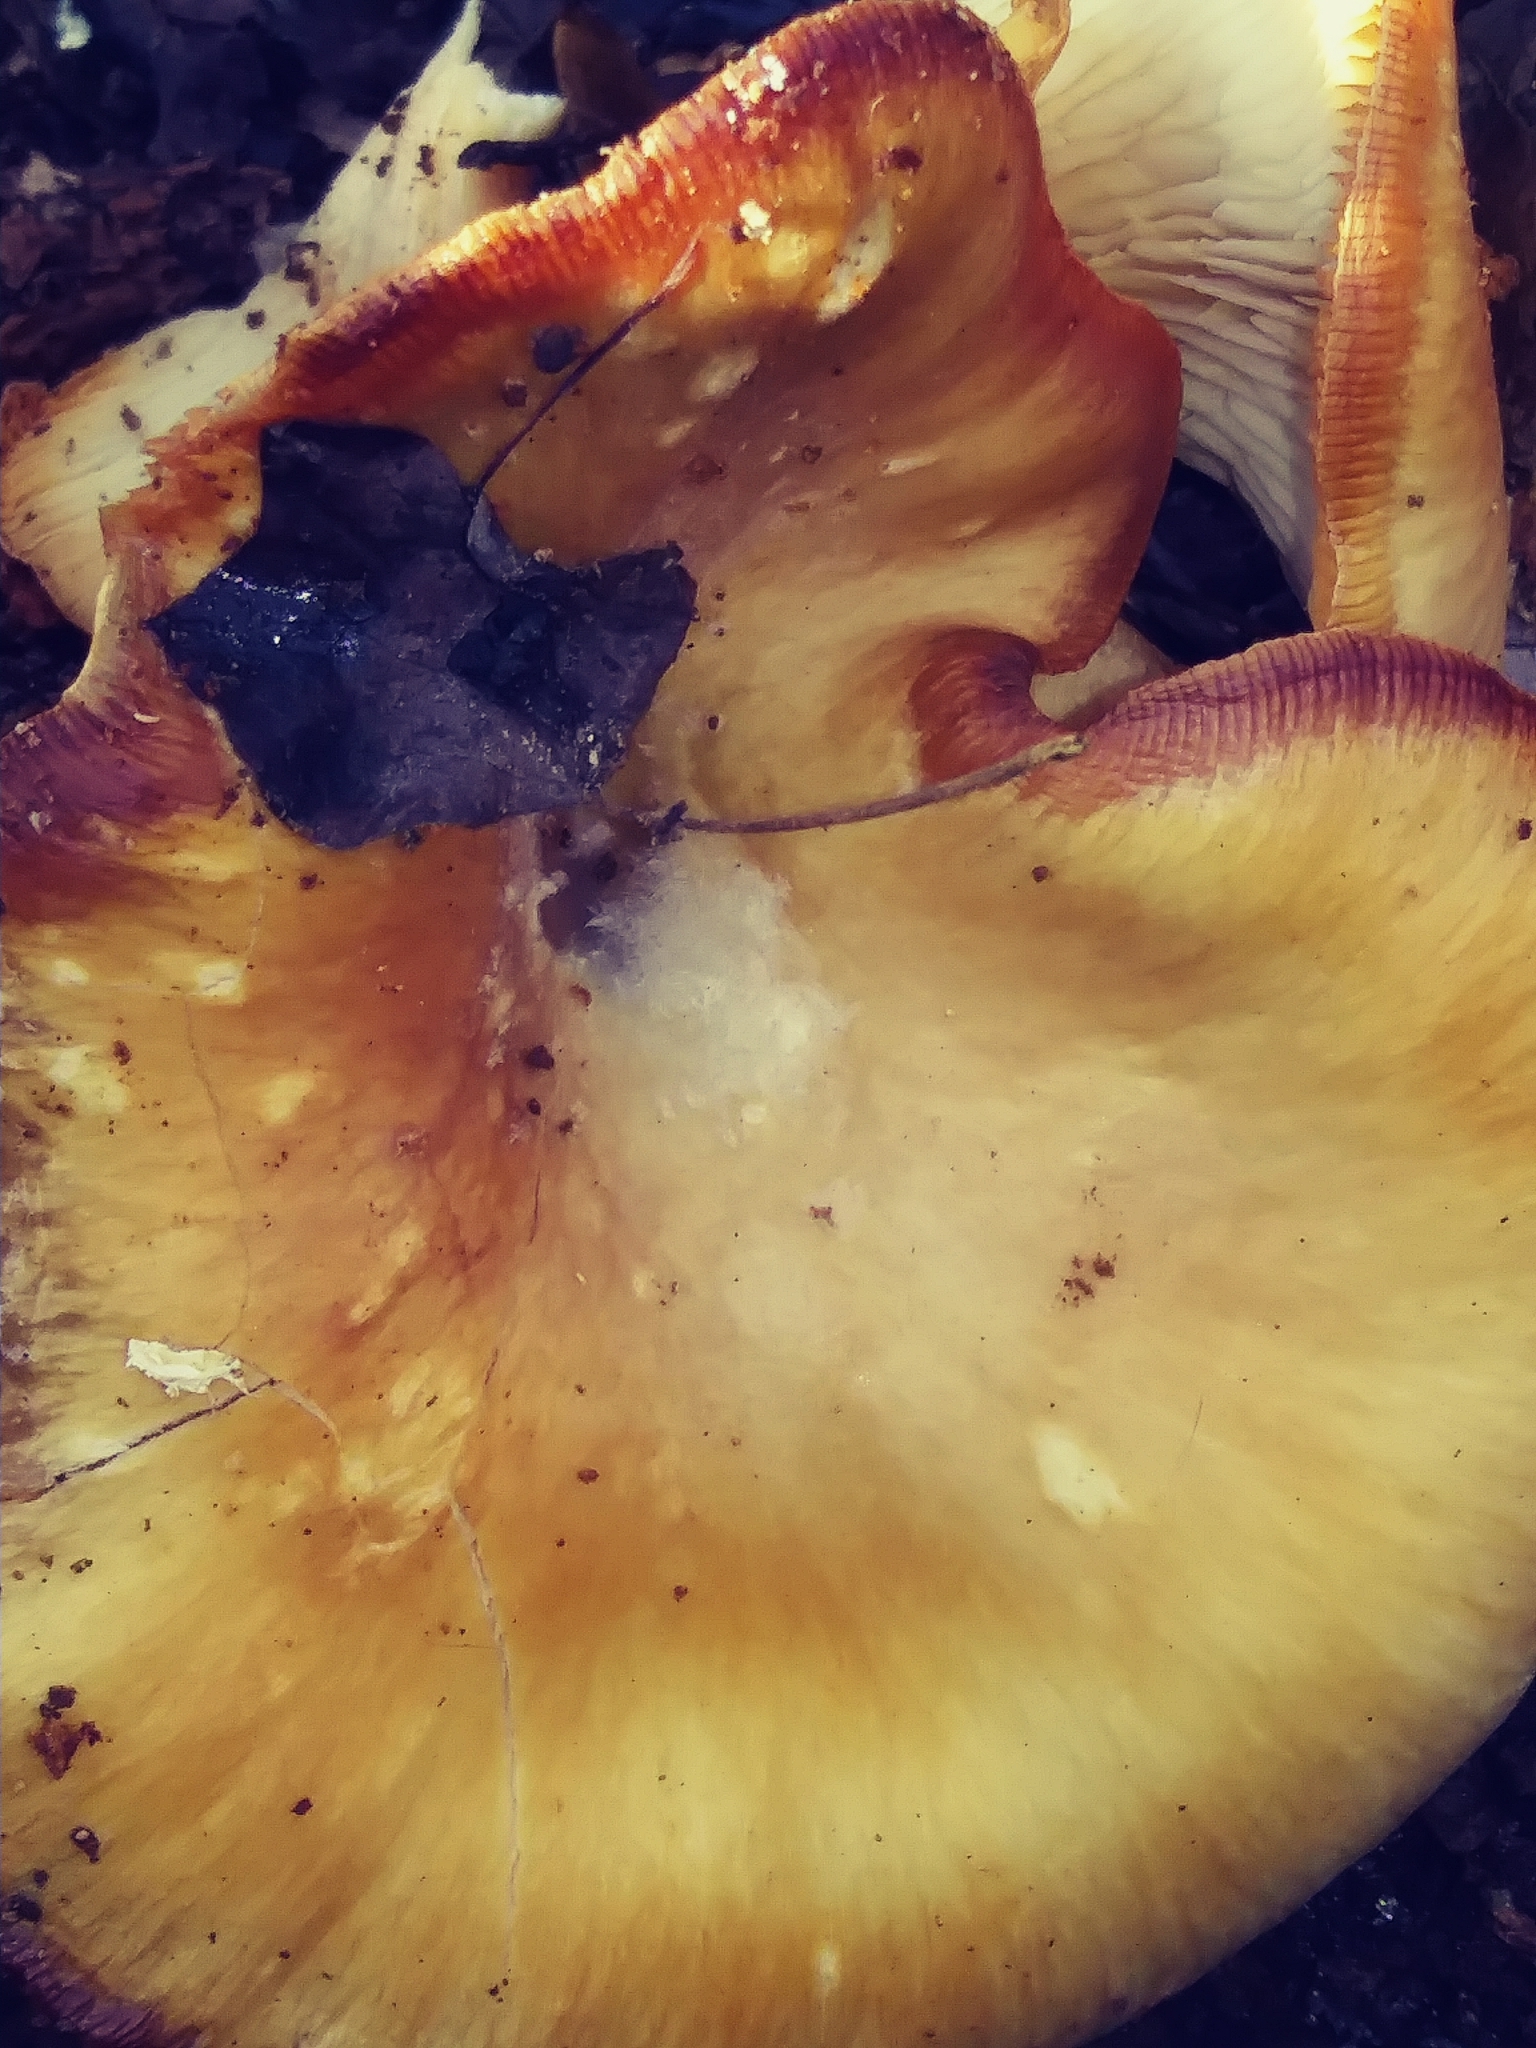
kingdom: Fungi
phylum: Basidiomycota
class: Agaricomycetes
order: Agaricales
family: Pleurotaceae
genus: Pleurotus
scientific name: Pleurotus ostreatus
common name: Oyster mushroom
